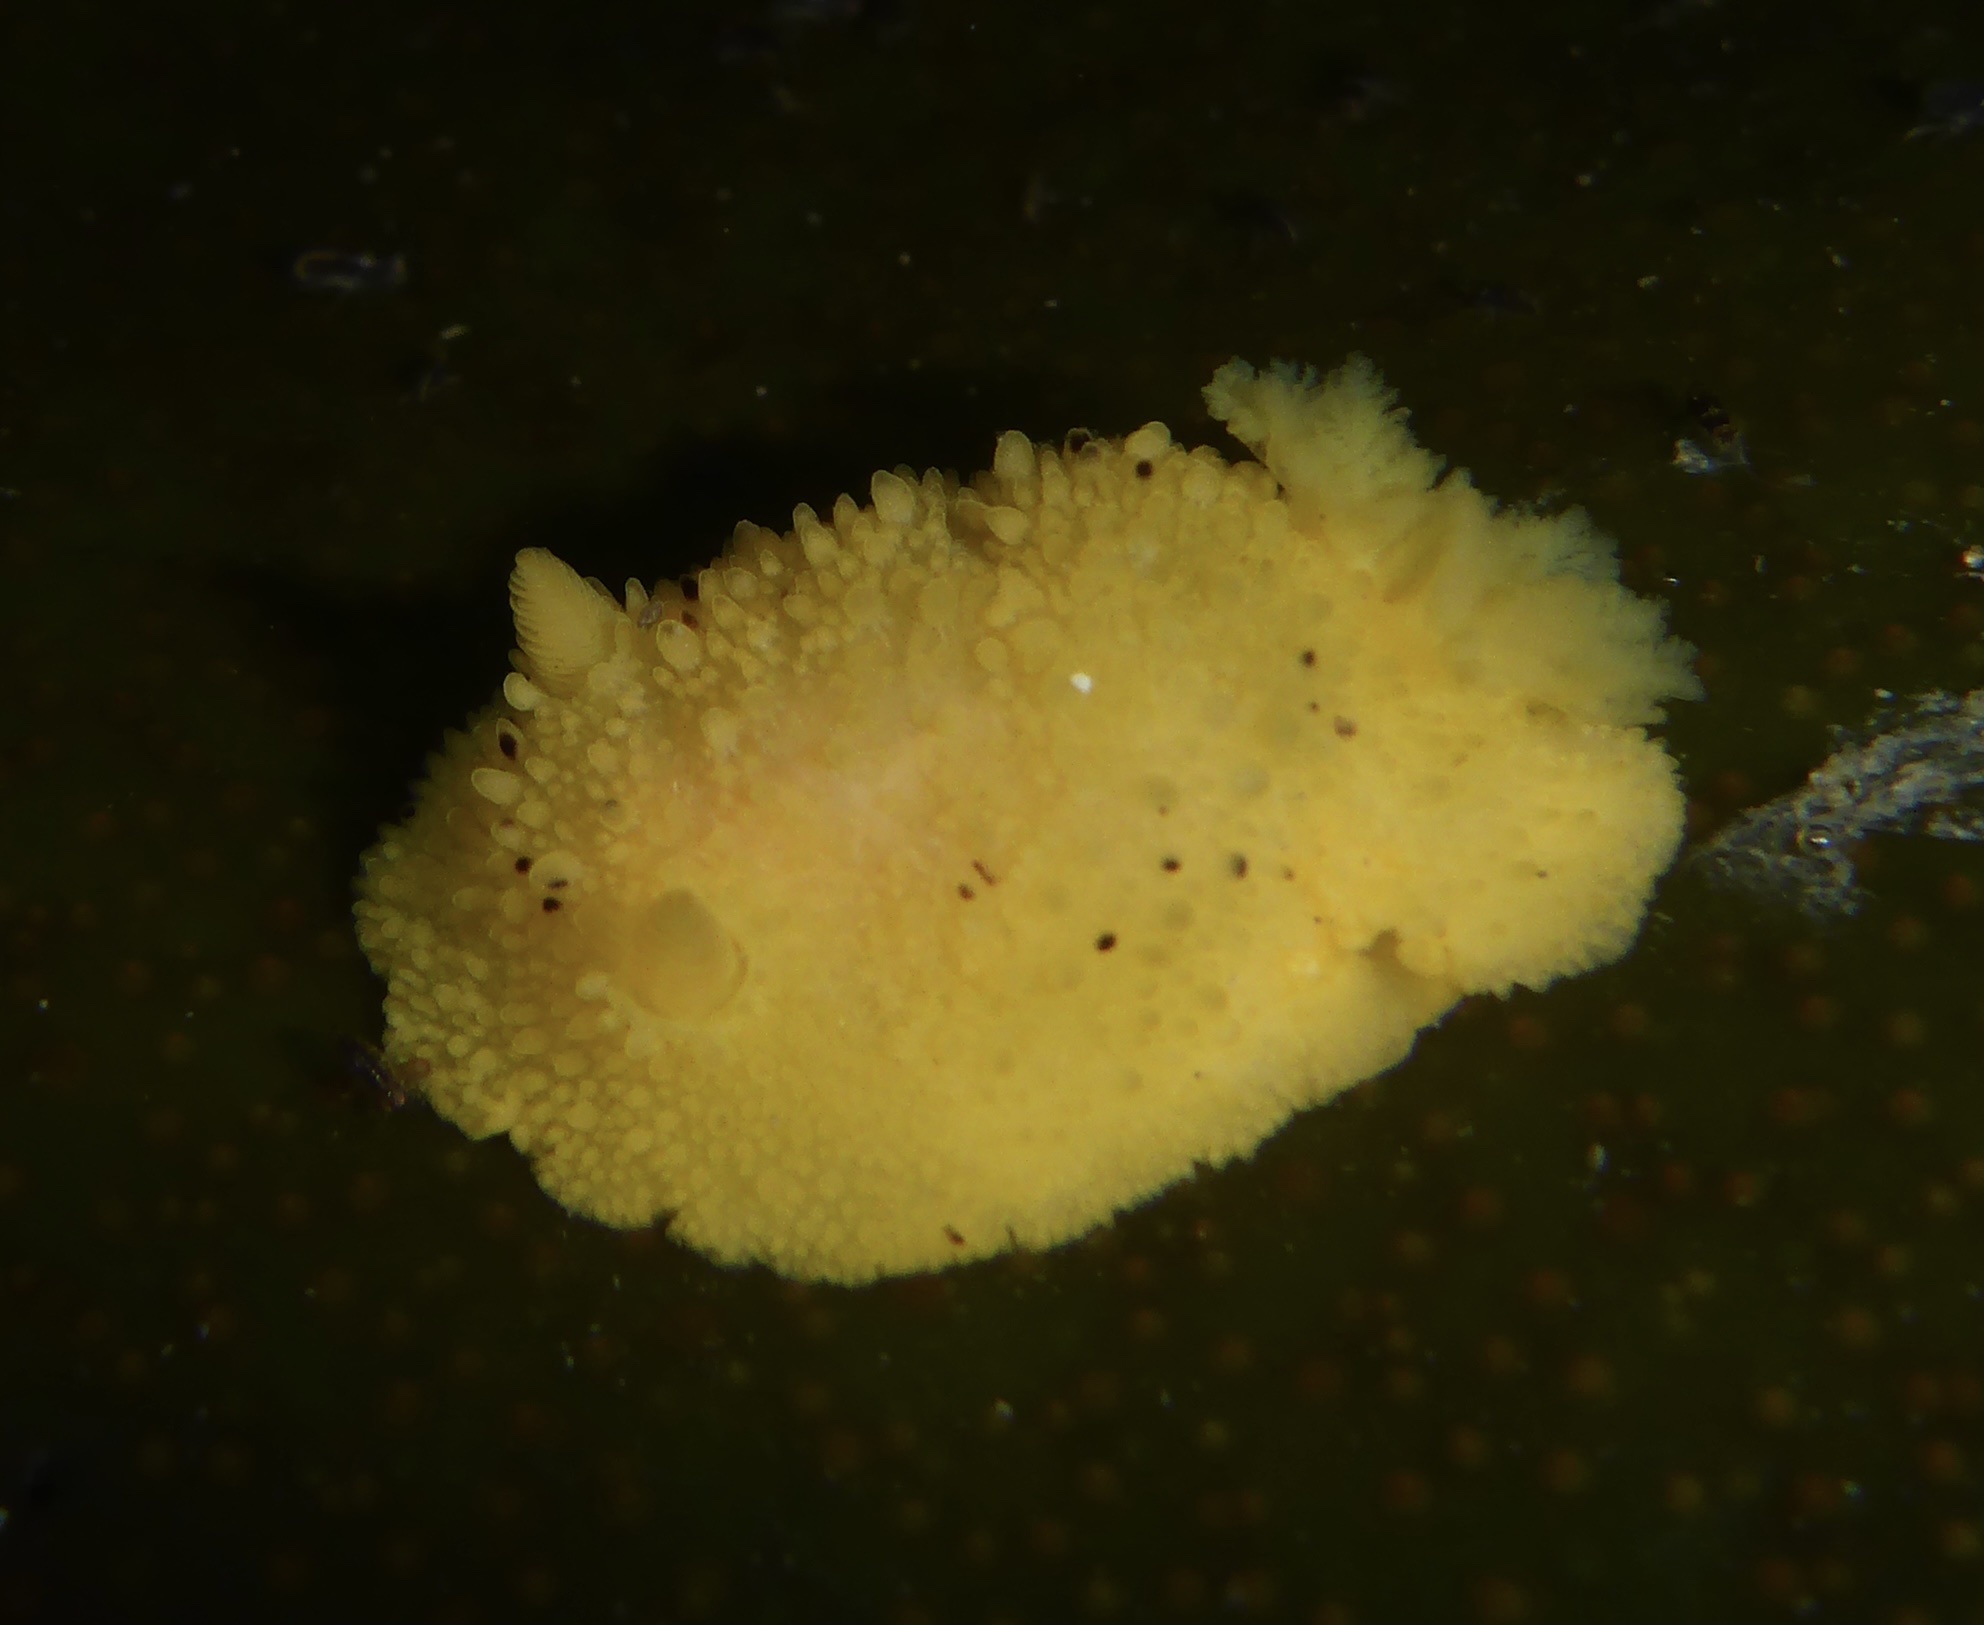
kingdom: Animalia
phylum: Mollusca
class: Gastropoda
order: Nudibranchia
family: Dorididae
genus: Doris
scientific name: Doris montereyensis
